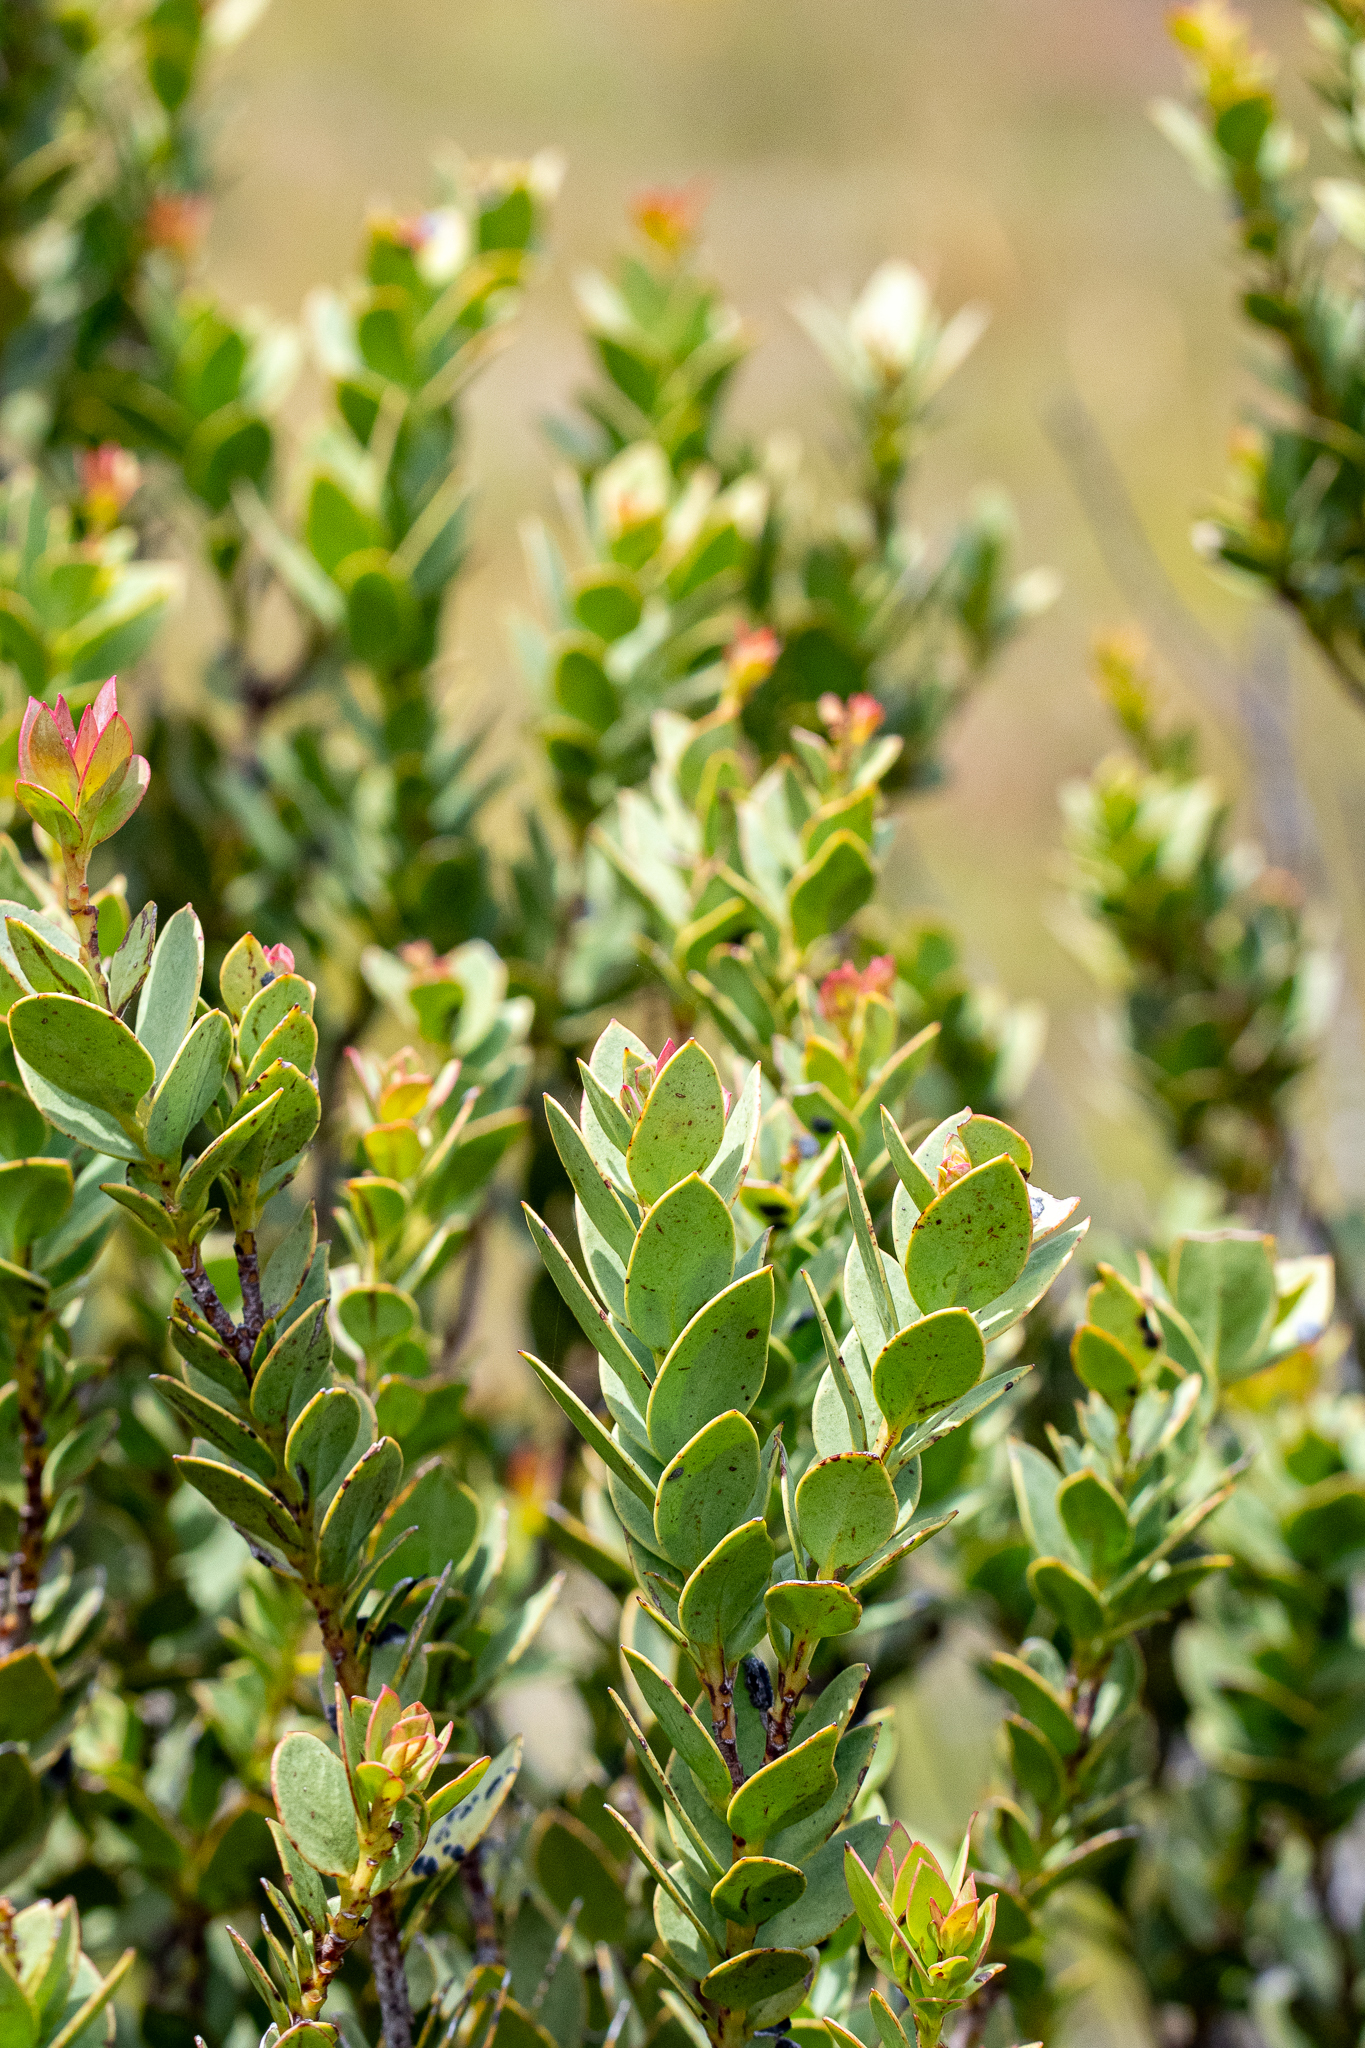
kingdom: Plantae
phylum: Tracheophyta
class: Magnoliopsida
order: Santalales
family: Santalaceae
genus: Osyris
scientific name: Osyris compressa
